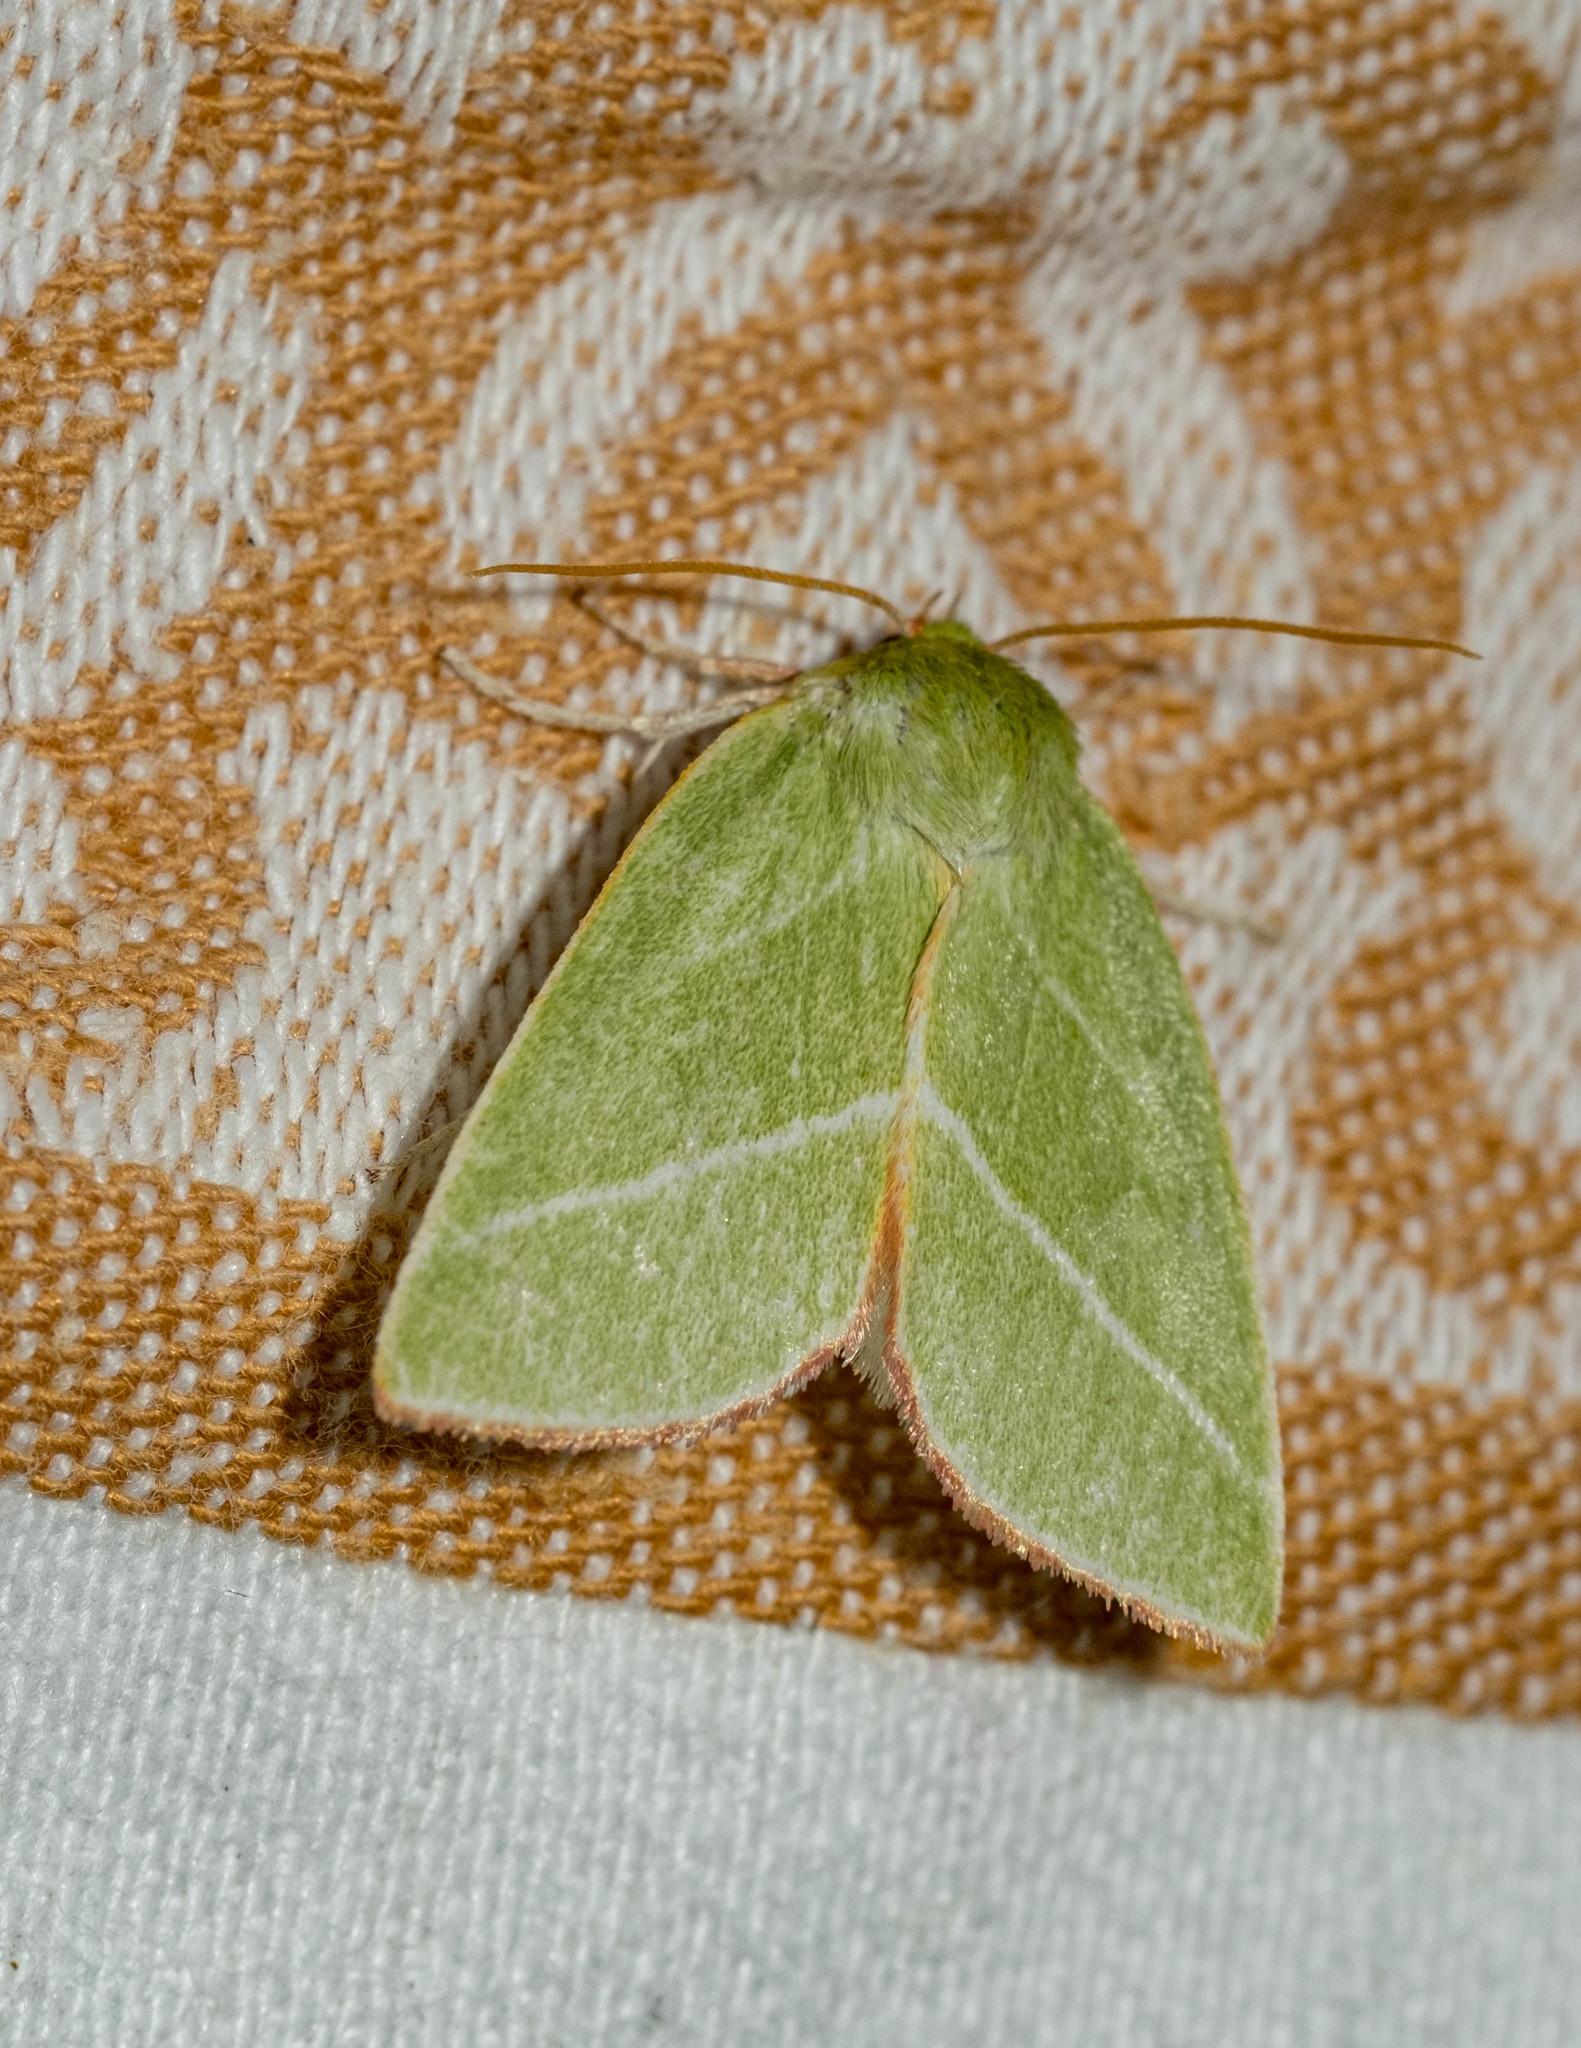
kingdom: Animalia
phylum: Arthropoda
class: Insecta
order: Lepidoptera
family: Nolidae
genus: Pseudoips
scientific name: Pseudoips prasinana
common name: Green silver-lines
